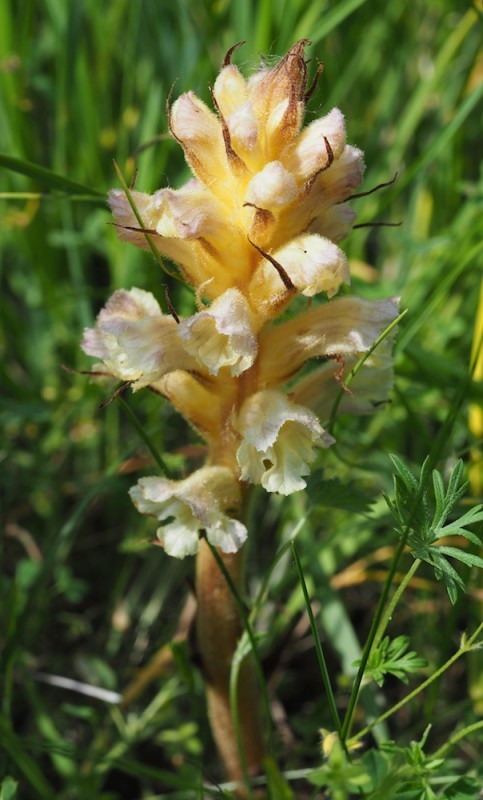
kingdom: Plantae
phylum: Tracheophyta
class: Magnoliopsida
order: Lamiales
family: Orobanchaceae
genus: Orobanche
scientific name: Orobanche lutea
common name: Yellow broomrape
